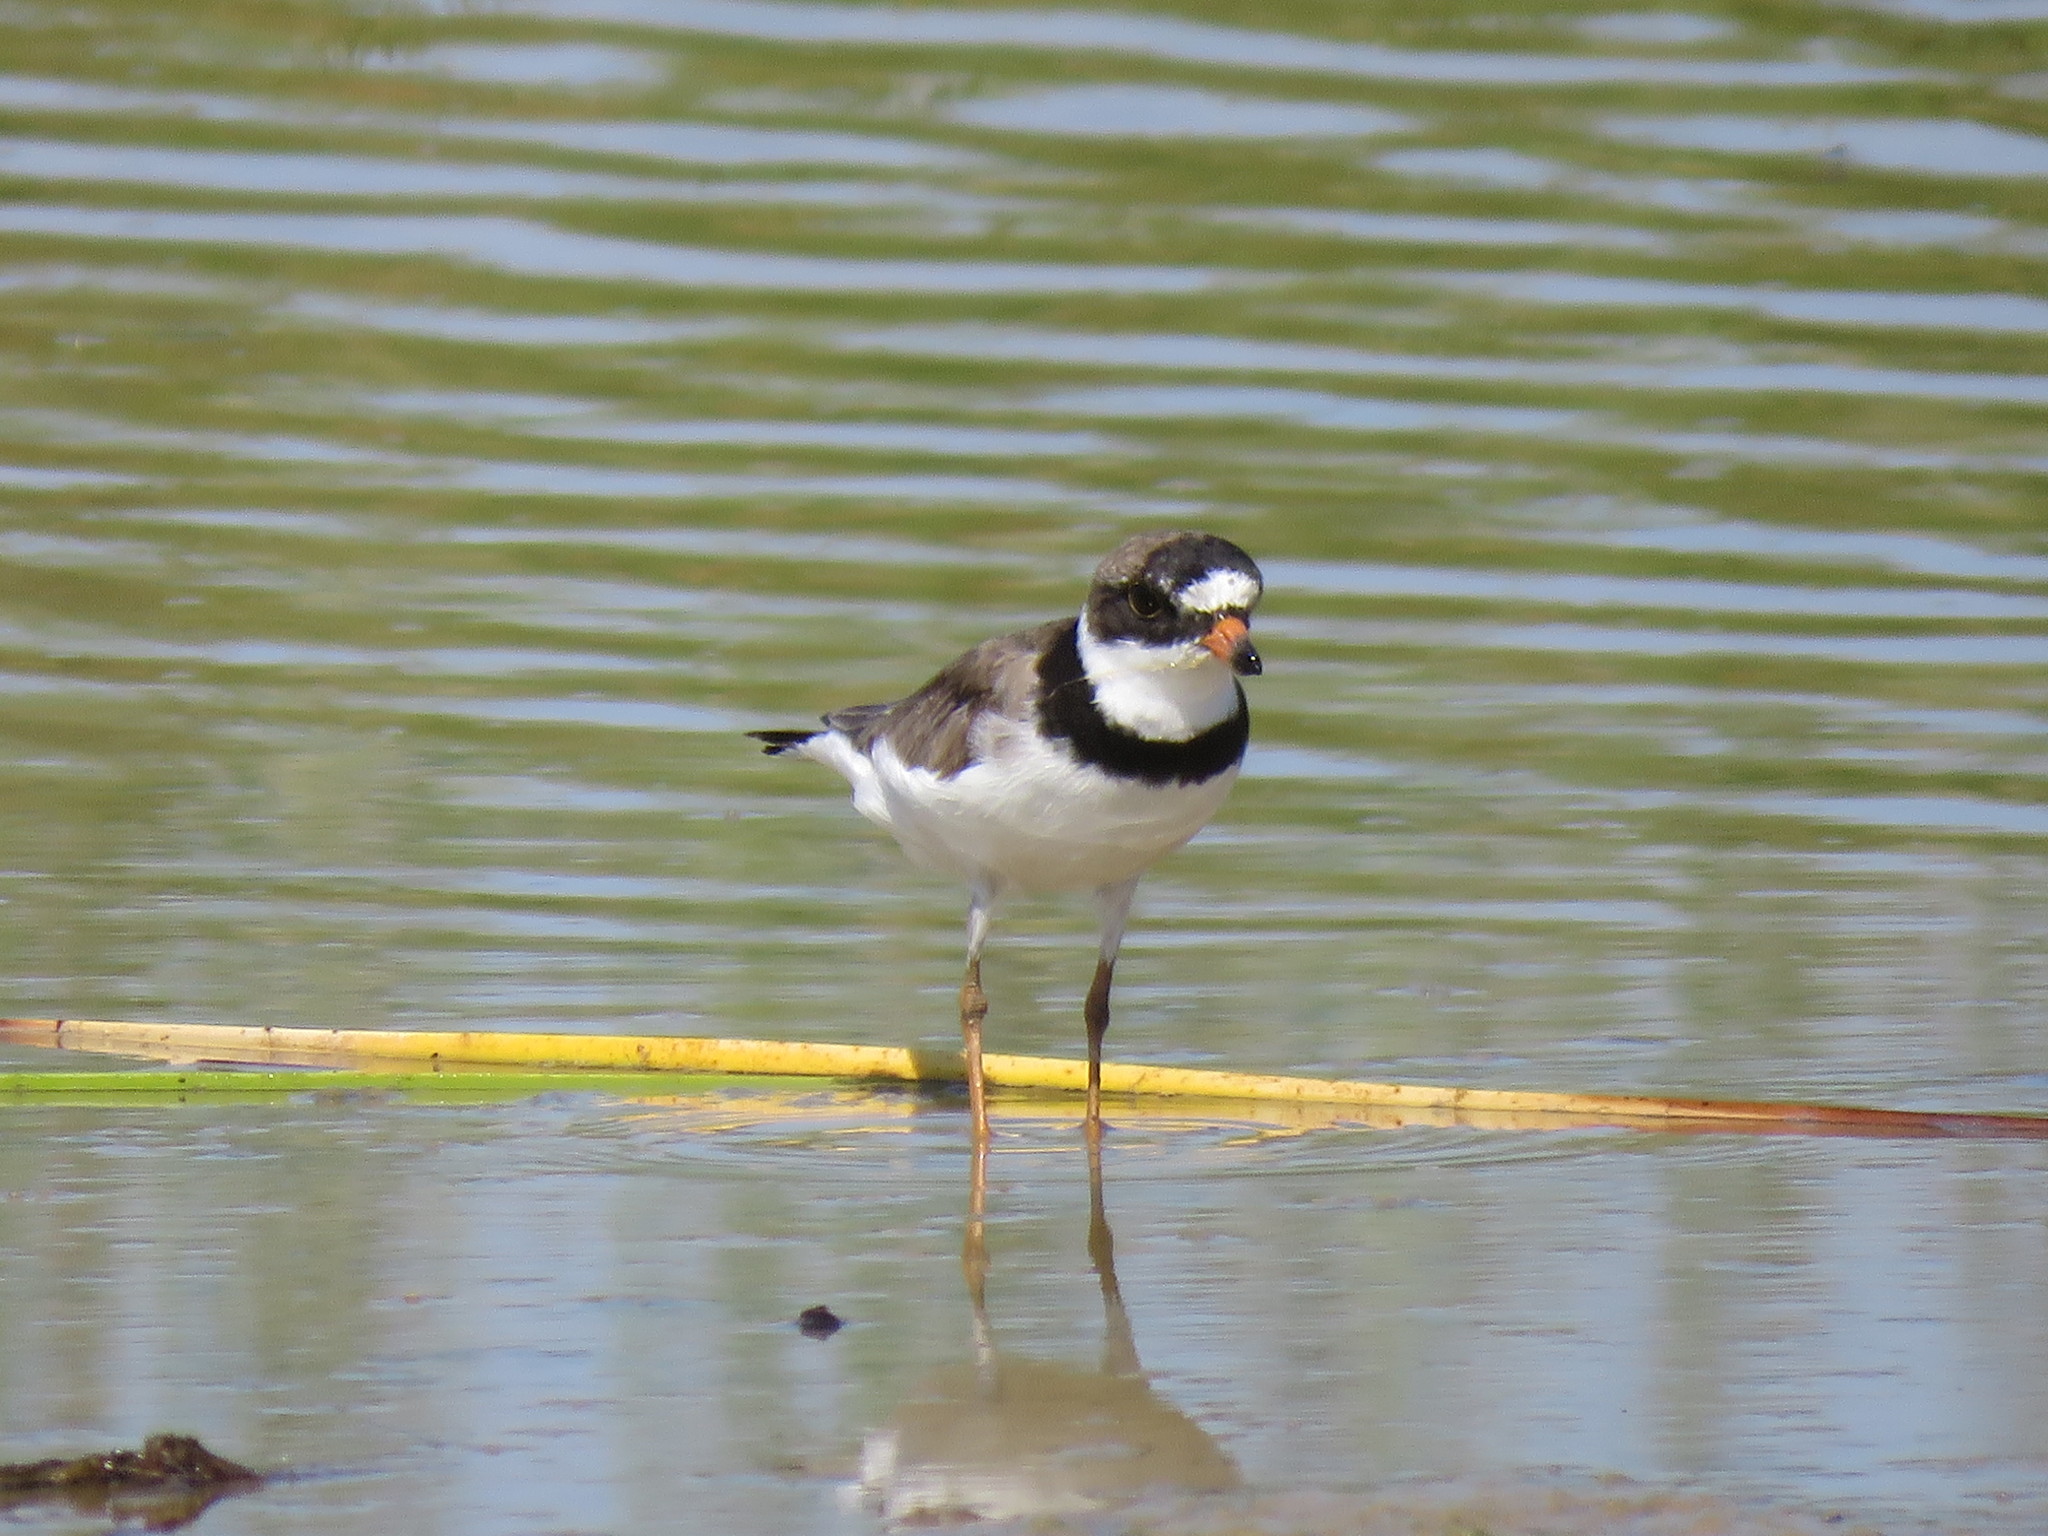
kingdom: Animalia
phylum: Chordata
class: Aves
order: Charadriiformes
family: Charadriidae
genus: Charadrius
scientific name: Charadrius semipalmatus
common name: Semipalmated plover
